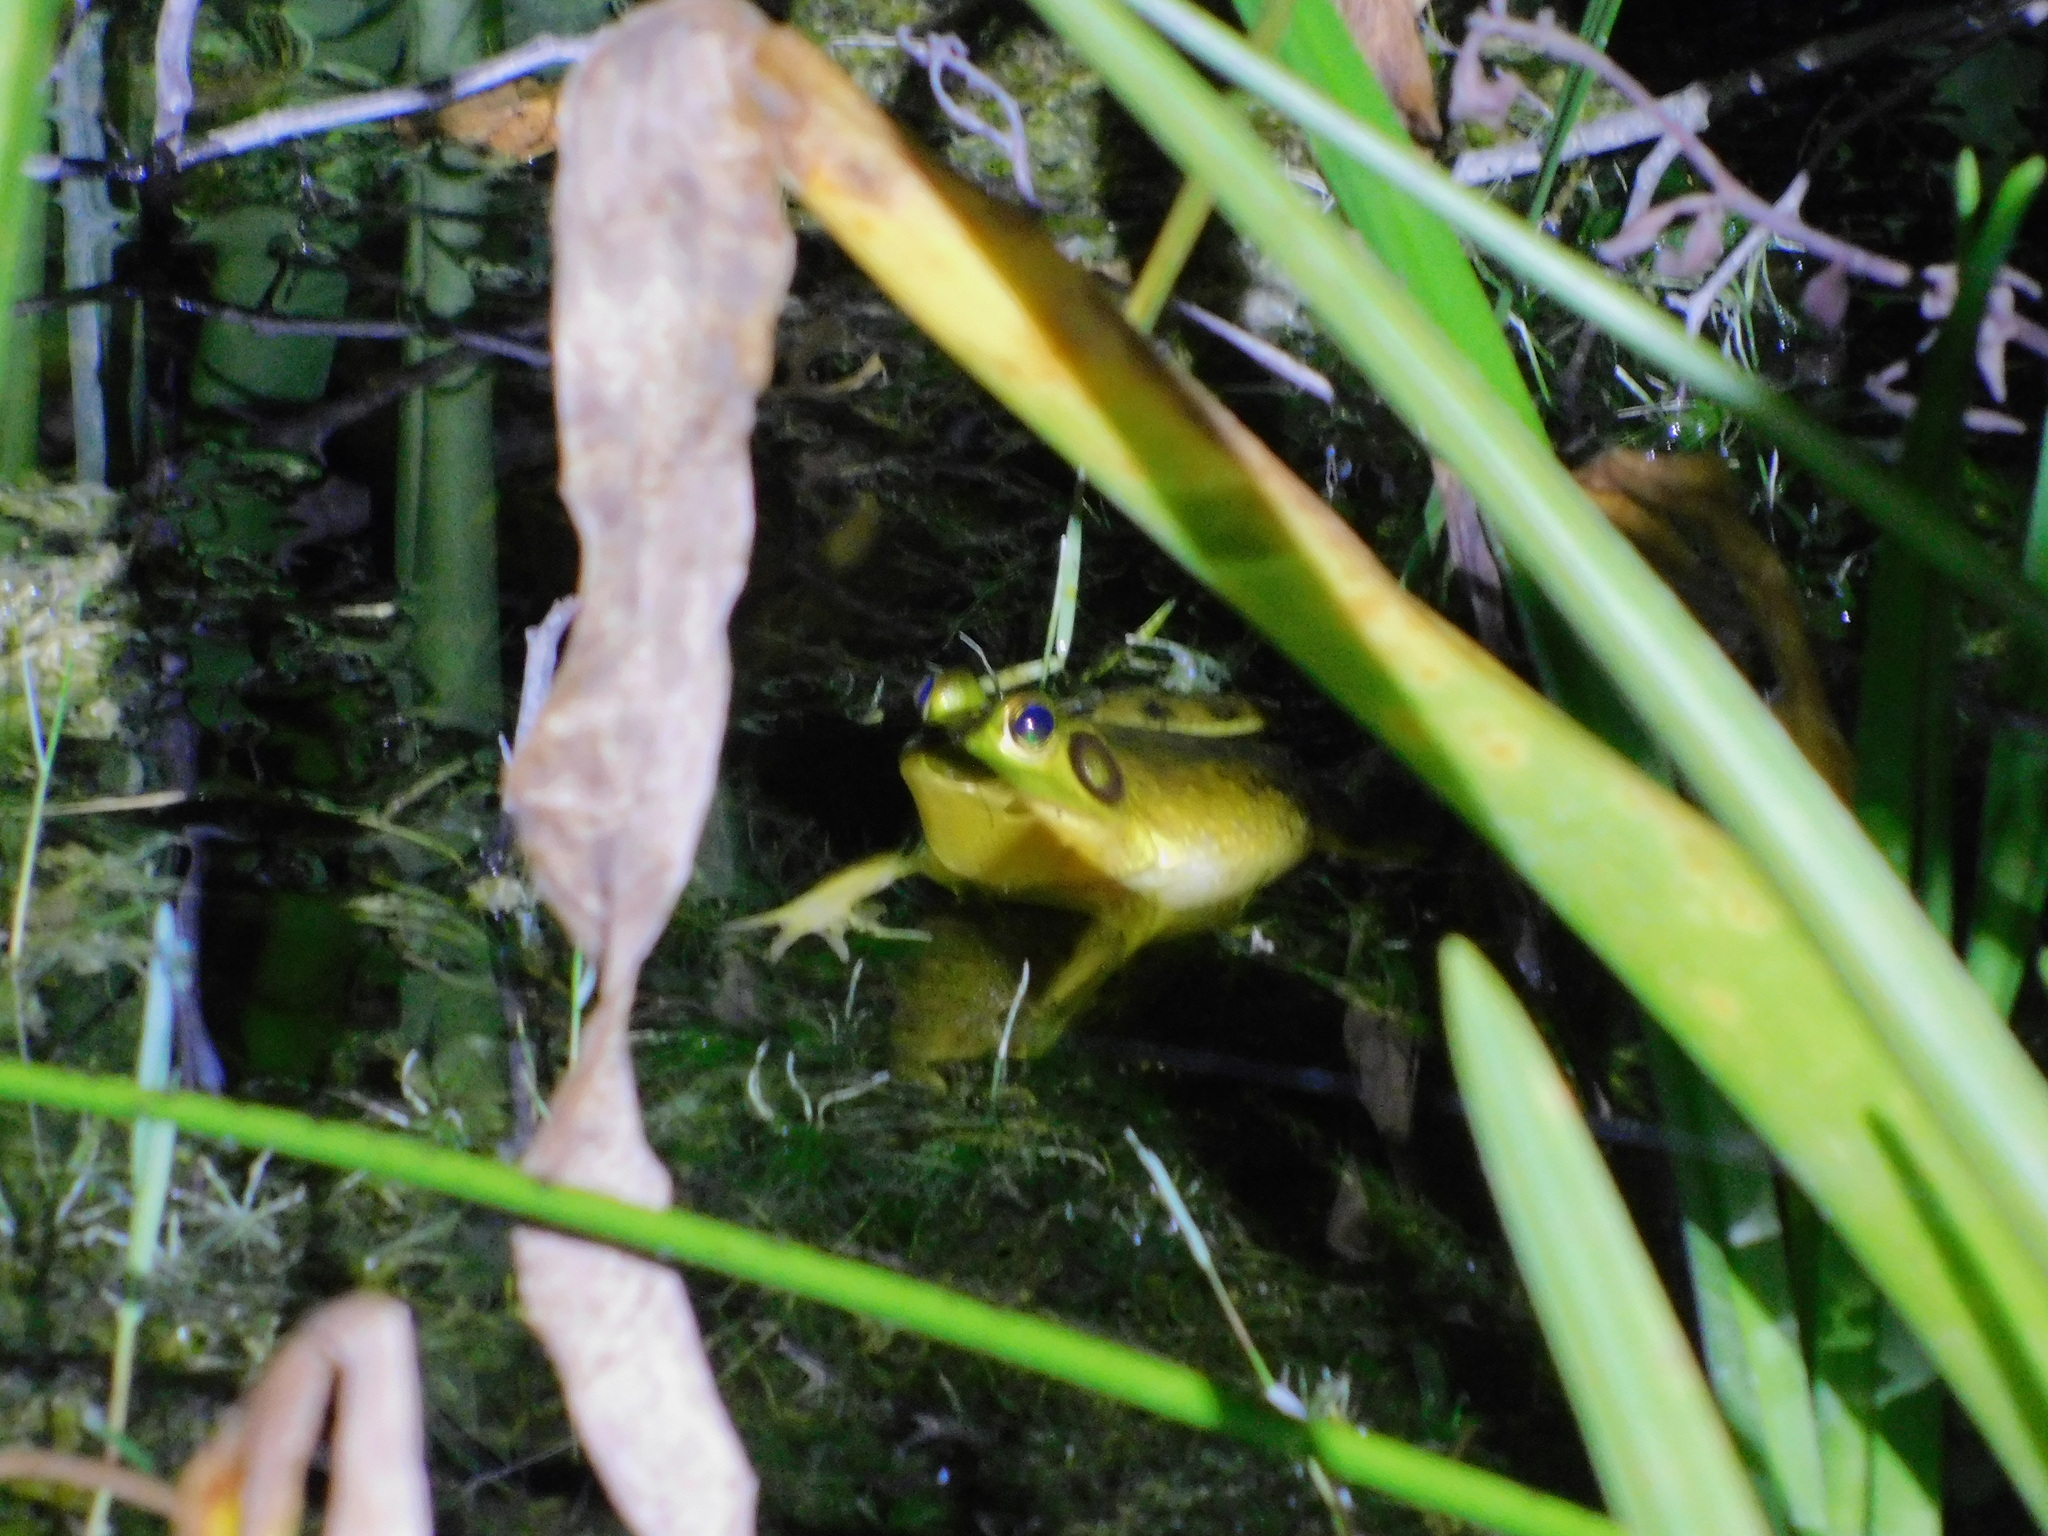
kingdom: Animalia
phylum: Chordata
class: Amphibia
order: Anura
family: Ranidae
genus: Lithobates
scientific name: Lithobates grylio
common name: Pig frog
